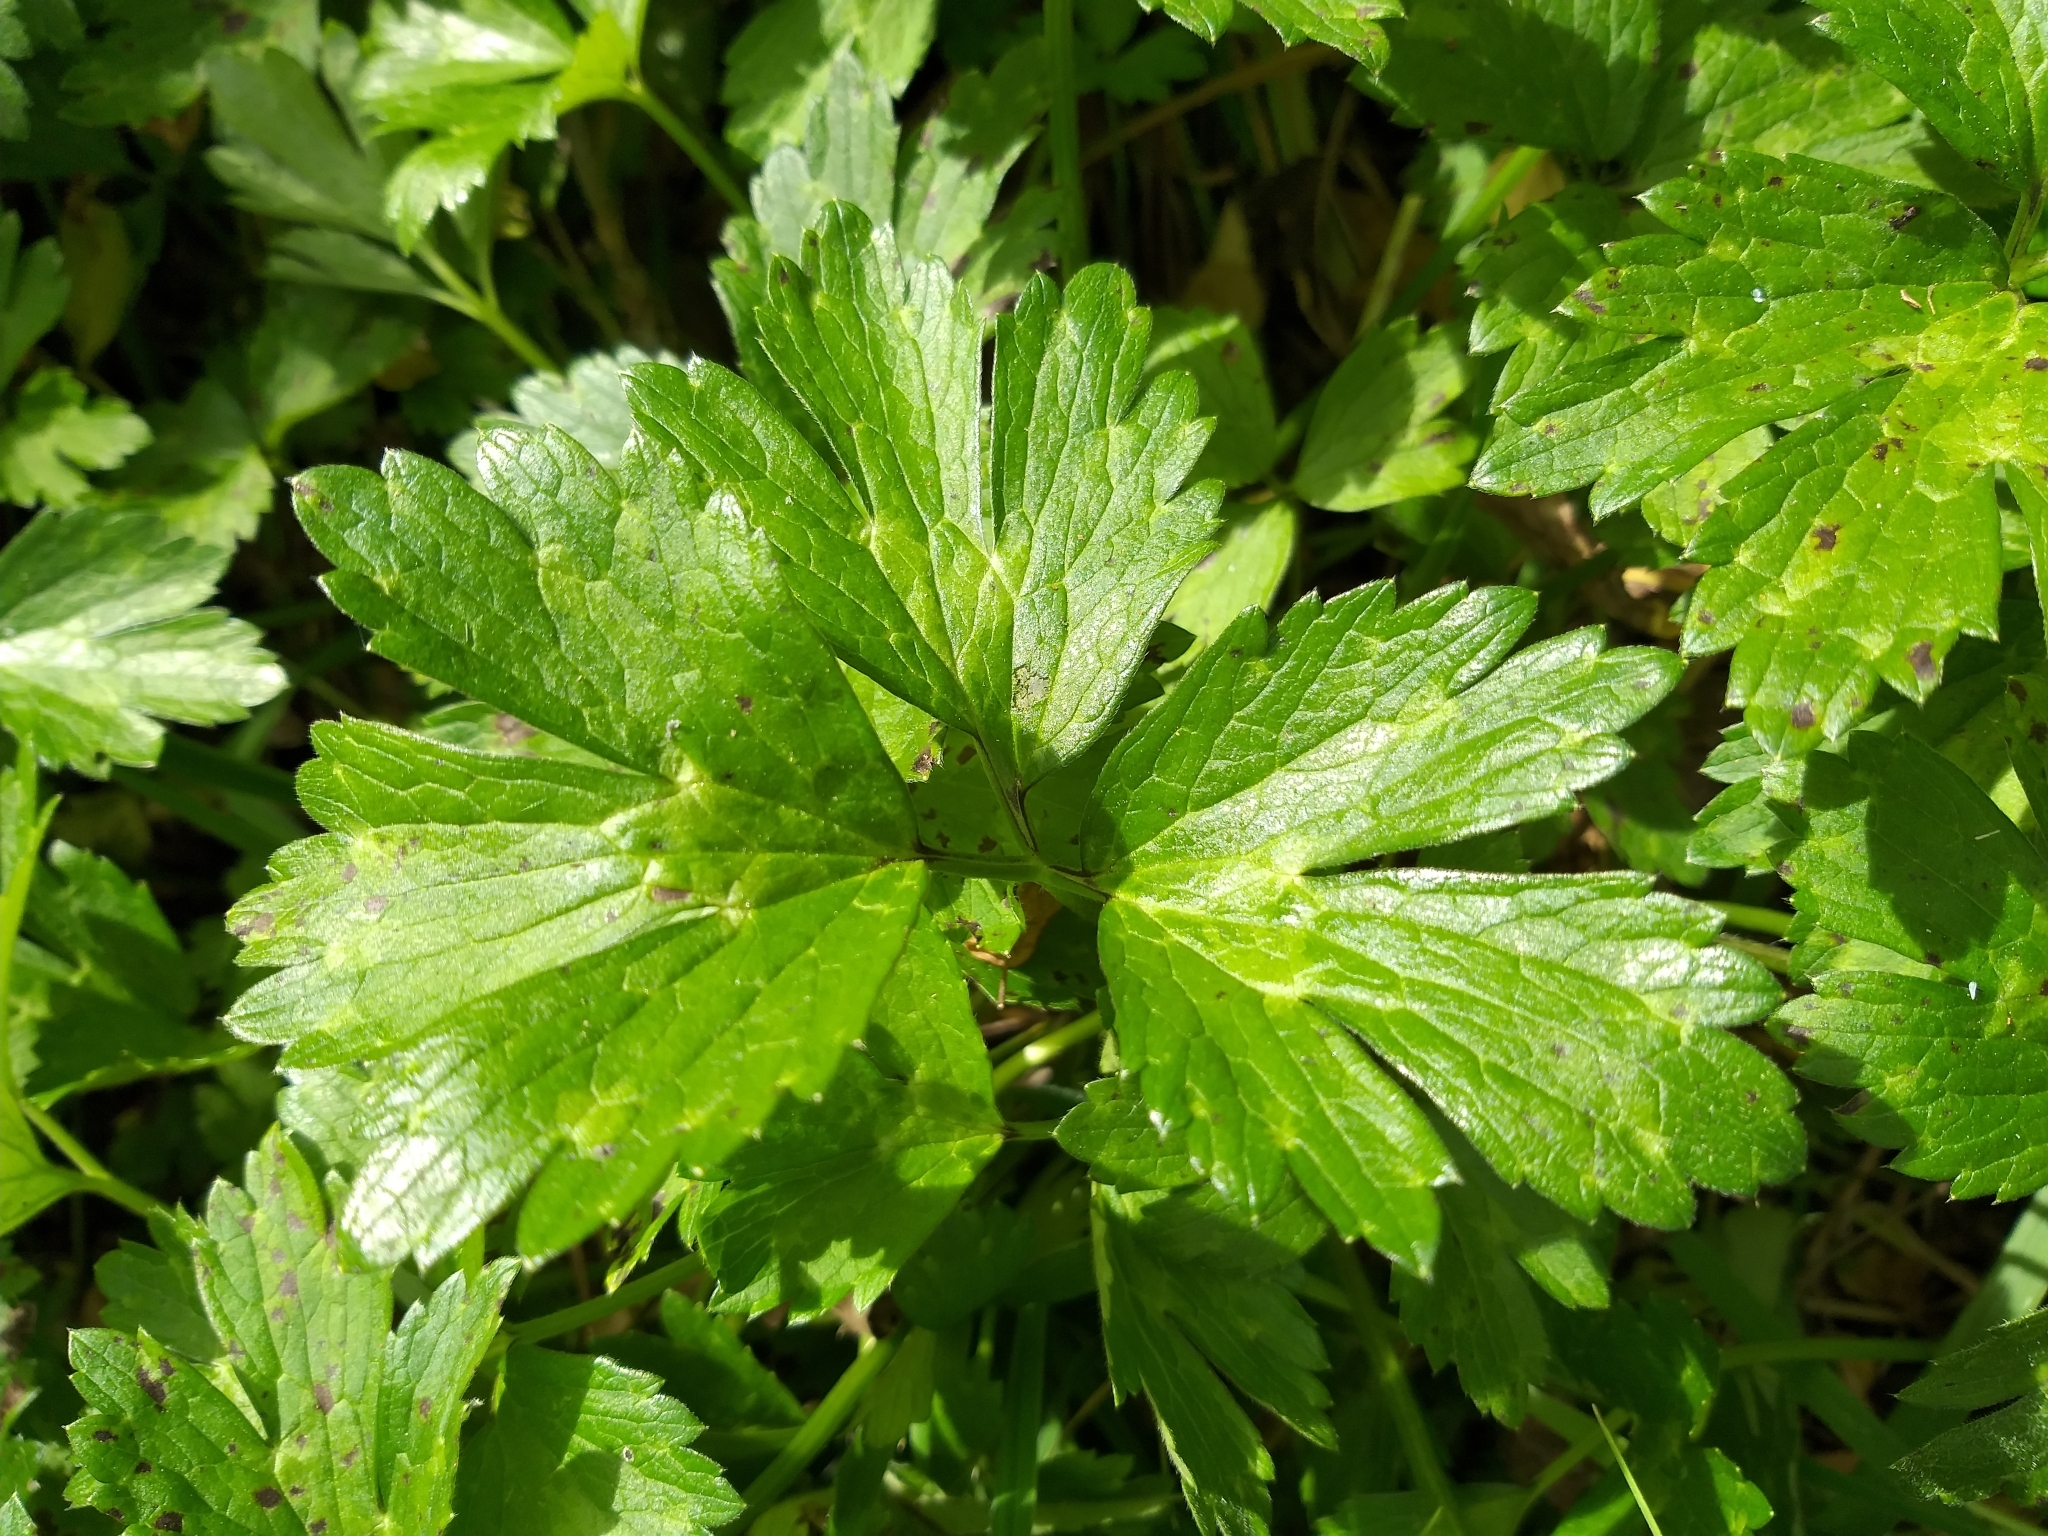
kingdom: Plantae
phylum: Tracheophyta
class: Magnoliopsida
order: Ranunculales
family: Ranunculaceae
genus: Ranunculus
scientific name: Ranunculus repens
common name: Creeping buttercup
